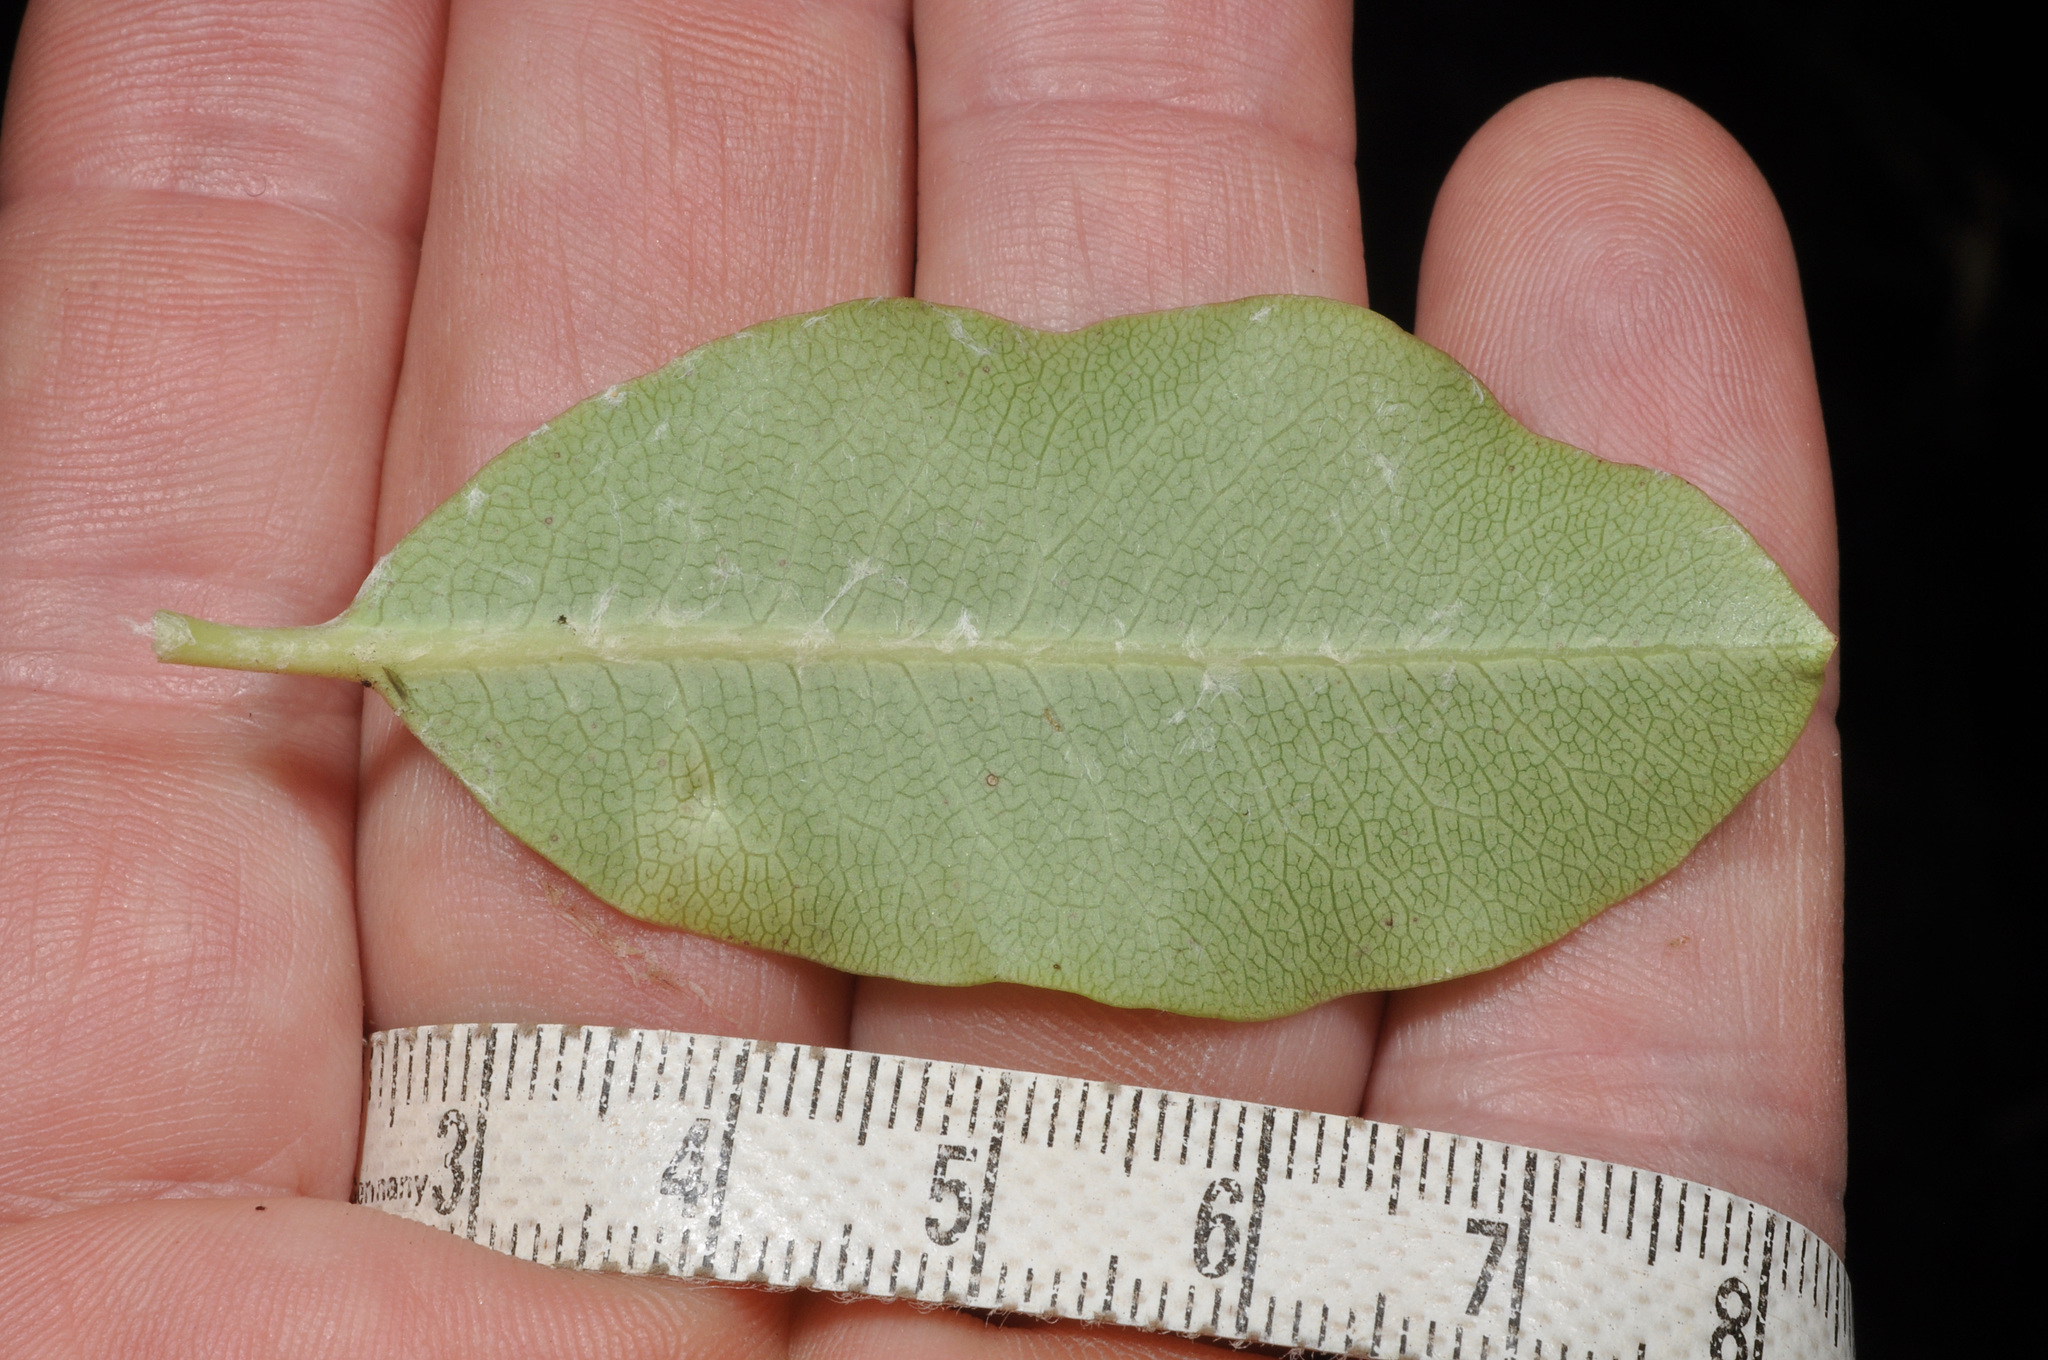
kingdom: Plantae
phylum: Tracheophyta
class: Magnoliopsida
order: Apiales
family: Pittosporaceae
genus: Pittosporum
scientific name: Pittosporum colensoi
